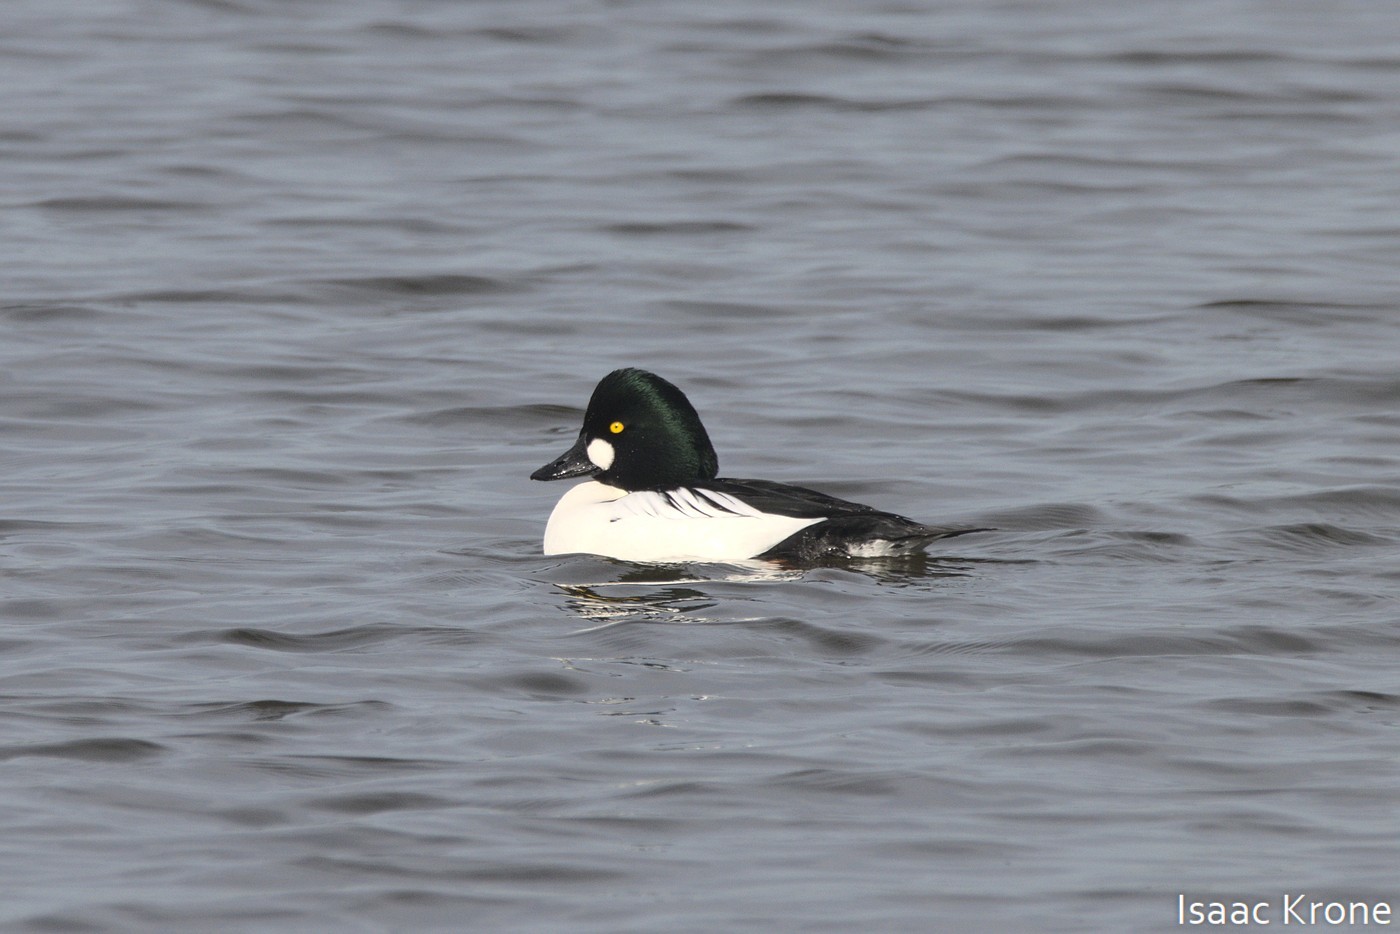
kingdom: Animalia
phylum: Chordata
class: Aves
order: Anseriformes
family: Anatidae
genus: Bucephala
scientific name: Bucephala clangula
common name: Common goldeneye
